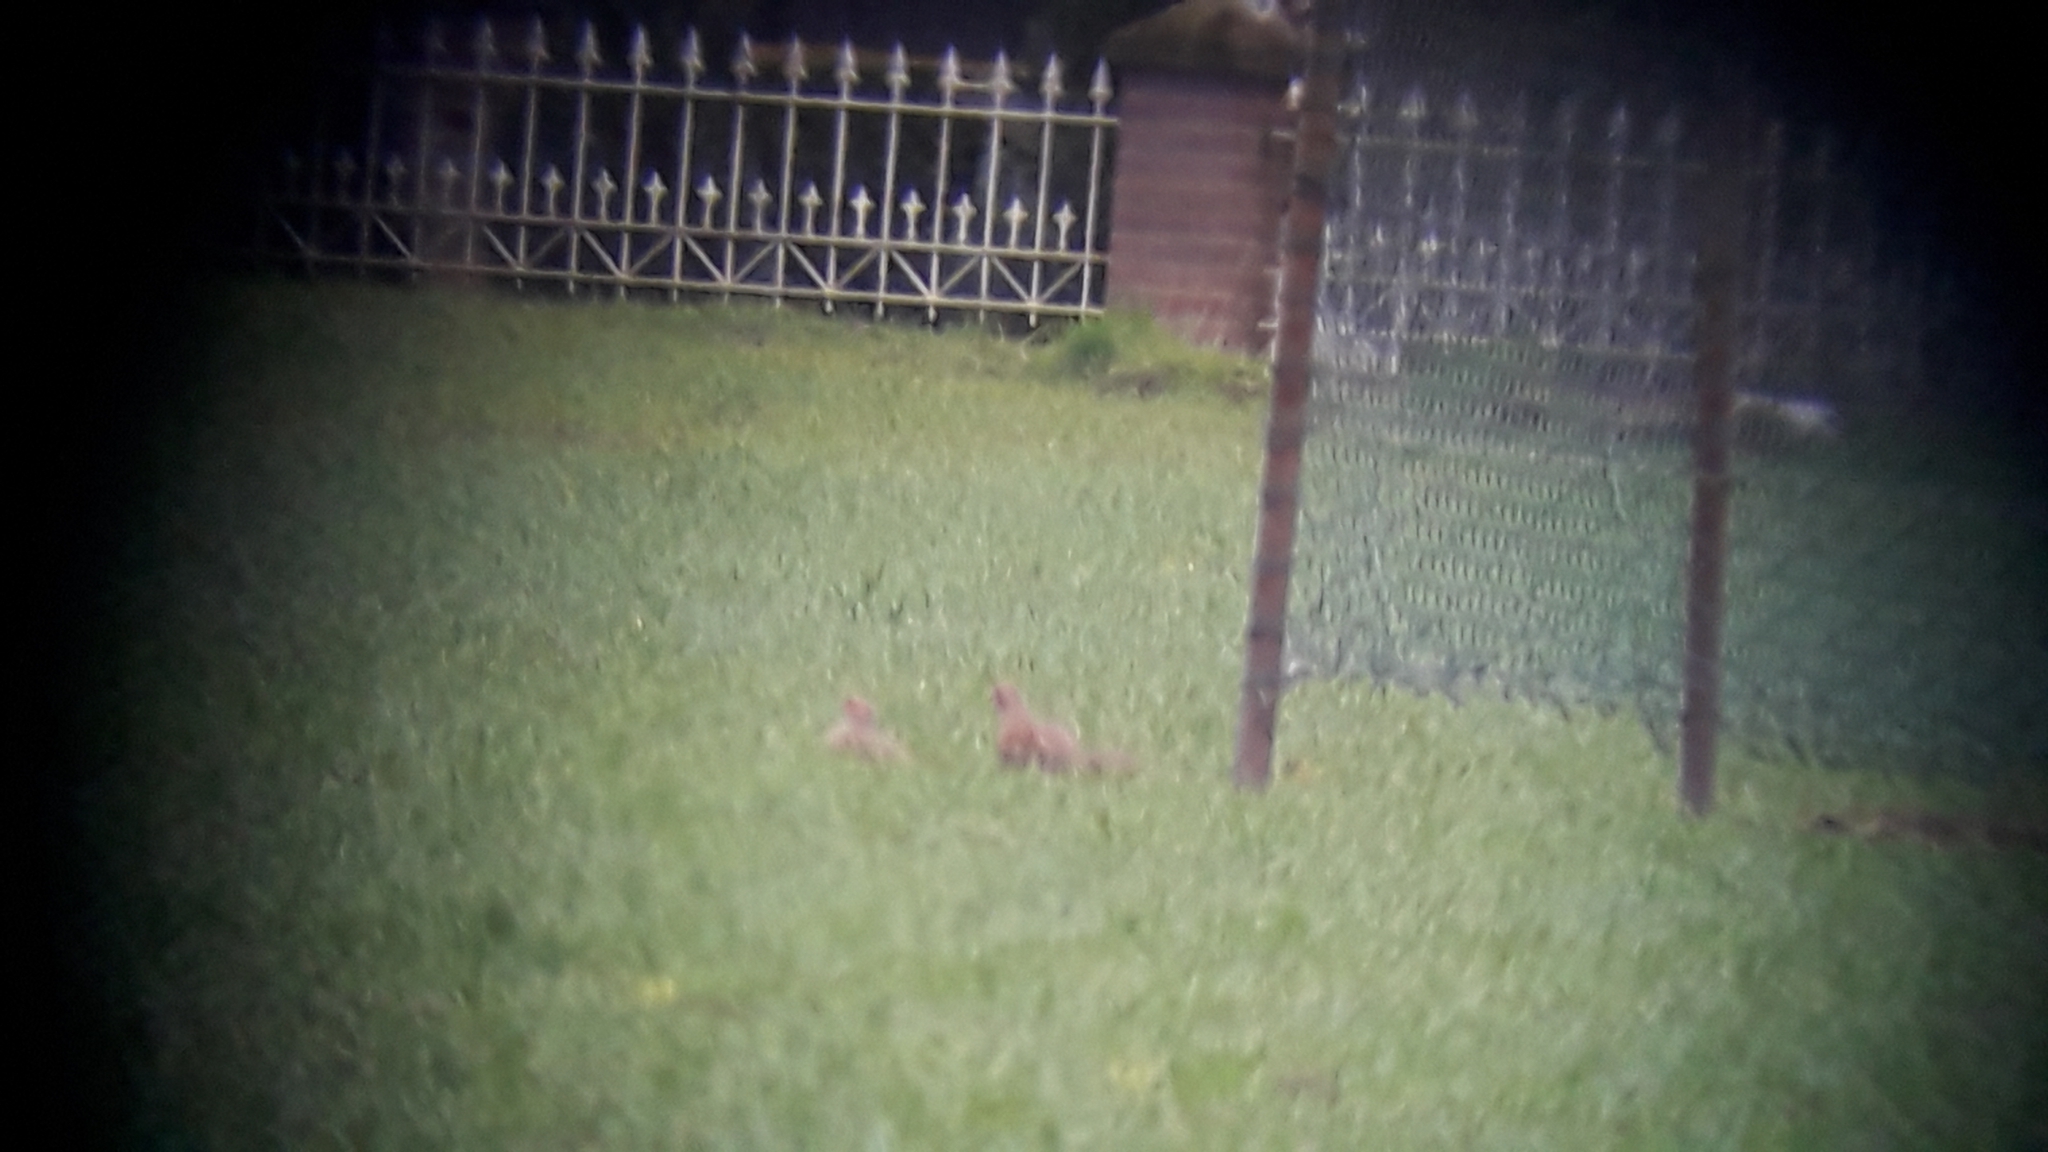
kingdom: Animalia
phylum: Chordata
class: Aves
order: Galliformes
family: Phasianidae
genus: Perdix
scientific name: Perdix perdix
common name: Grey partridge
